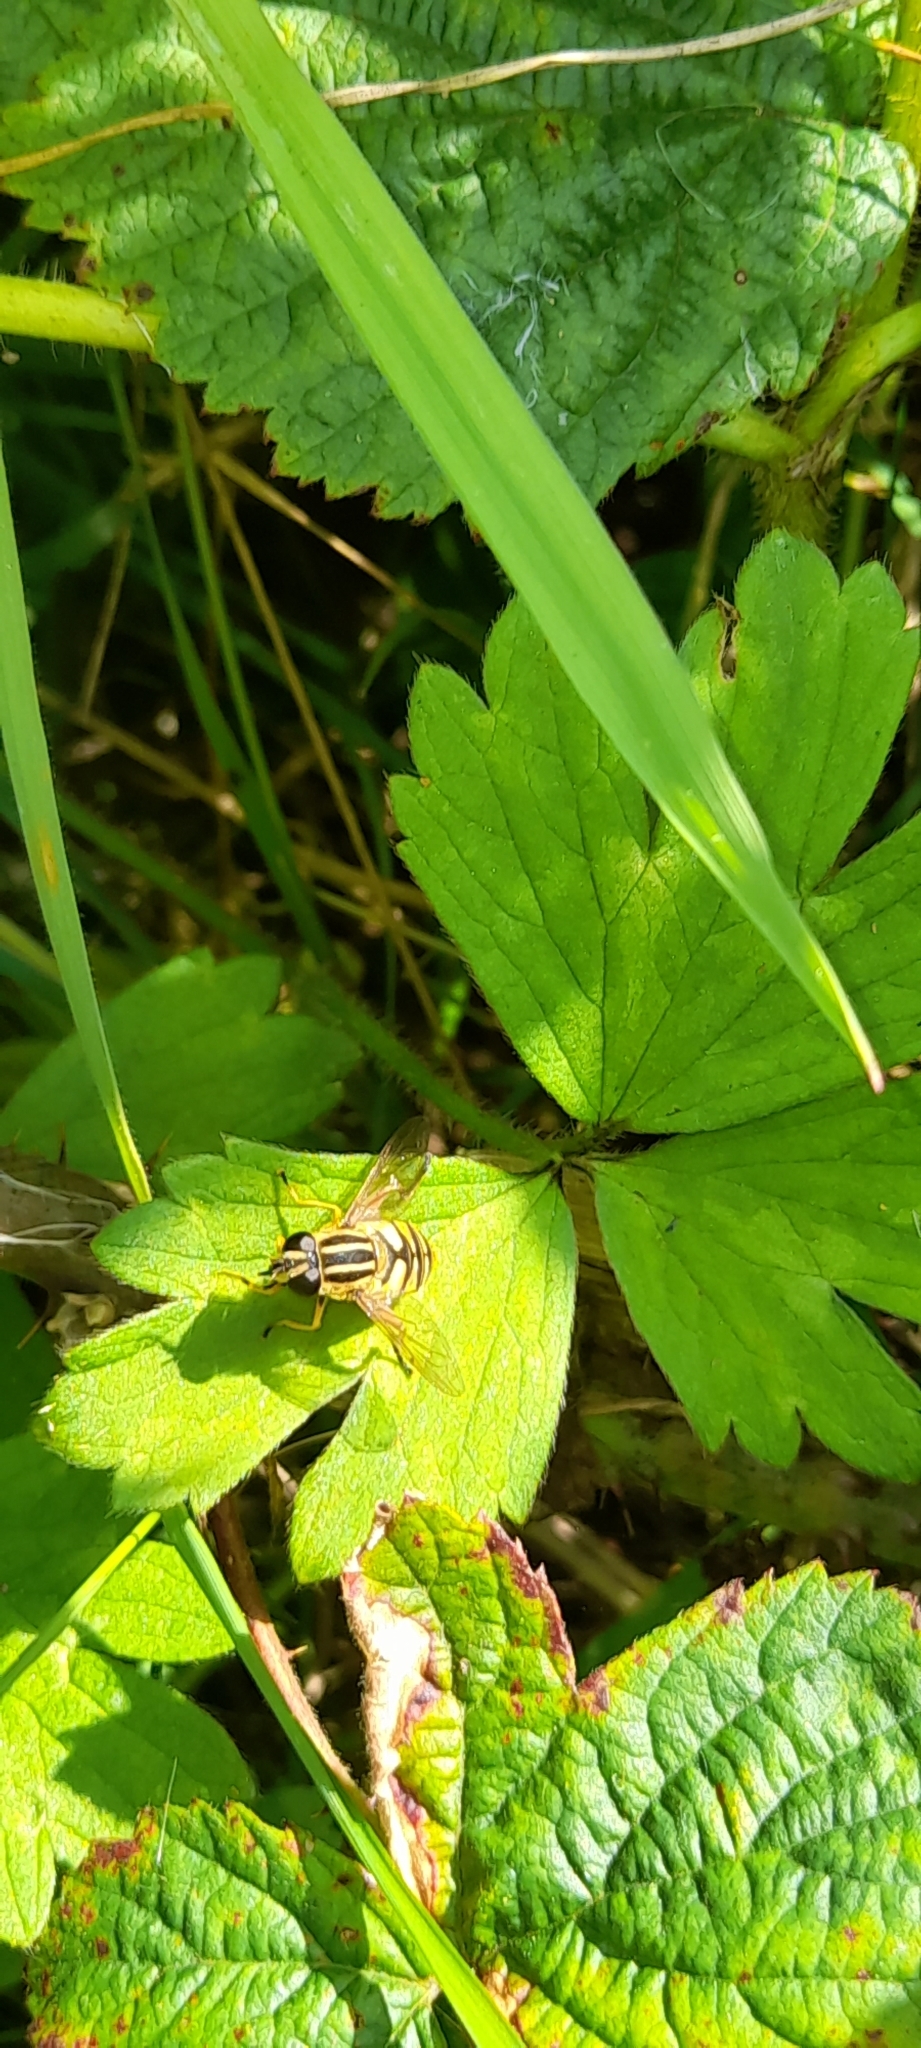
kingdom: Animalia
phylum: Arthropoda
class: Insecta
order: Diptera
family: Syrphidae
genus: Helophilus
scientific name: Helophilus pendulus
